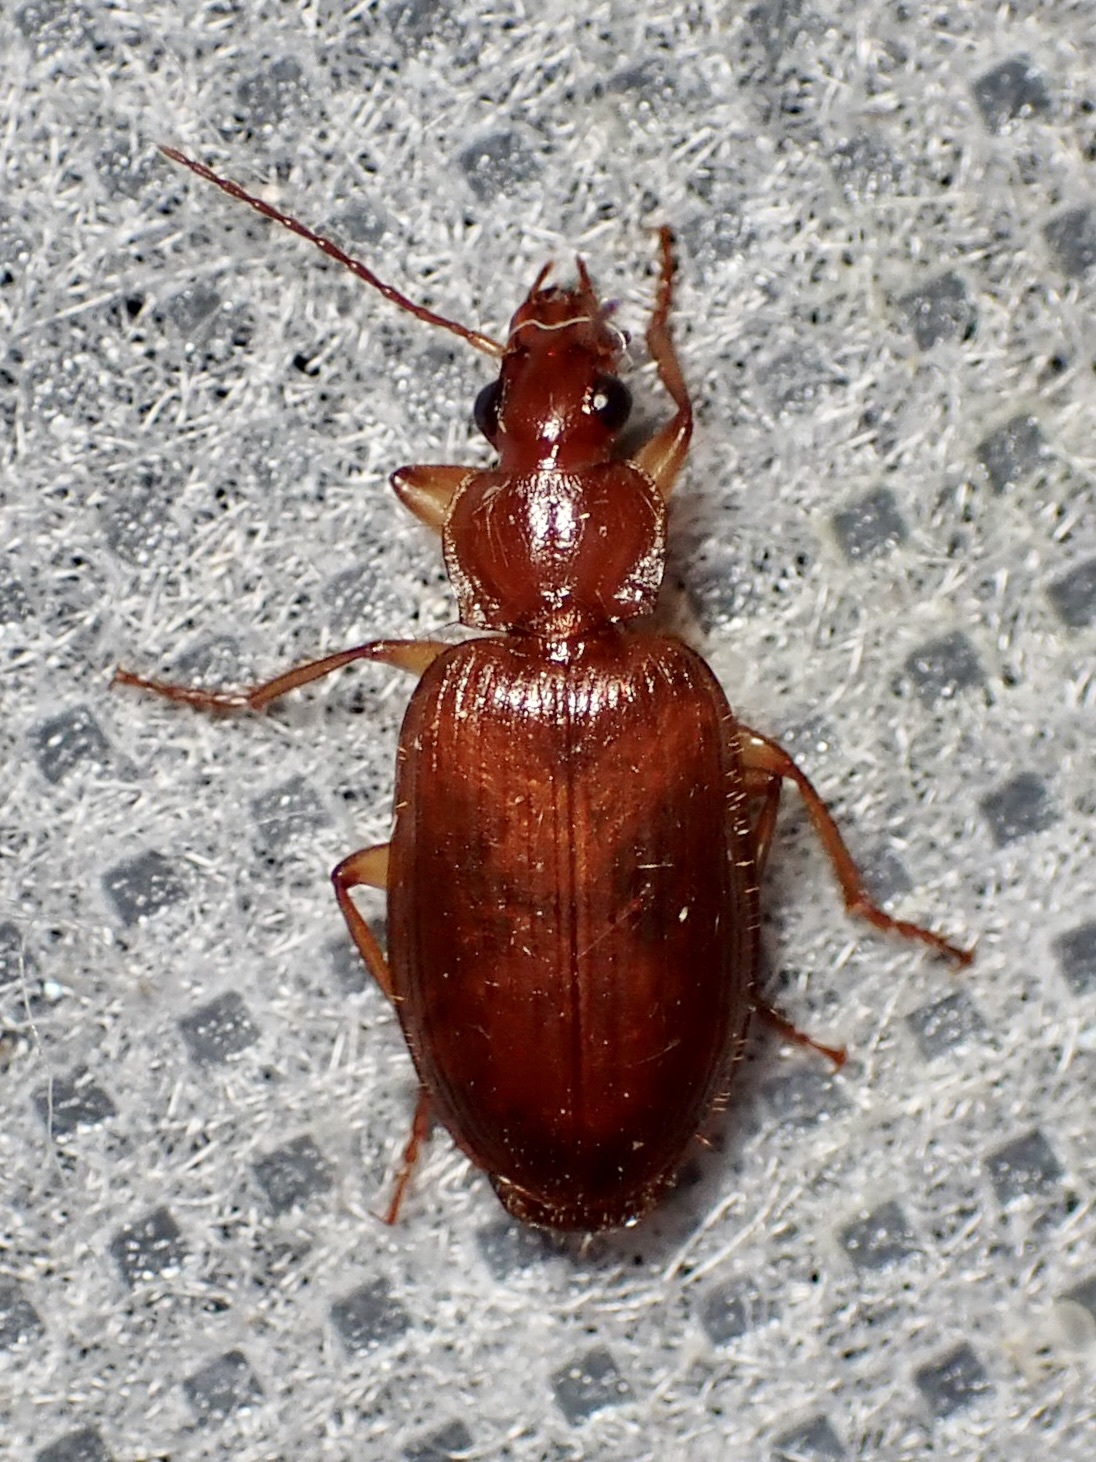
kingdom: Animalia
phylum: Arthropoda
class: Insecta
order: Coleoptera
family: Carabidae
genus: Pinacodera
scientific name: Pinacodera punctifera
